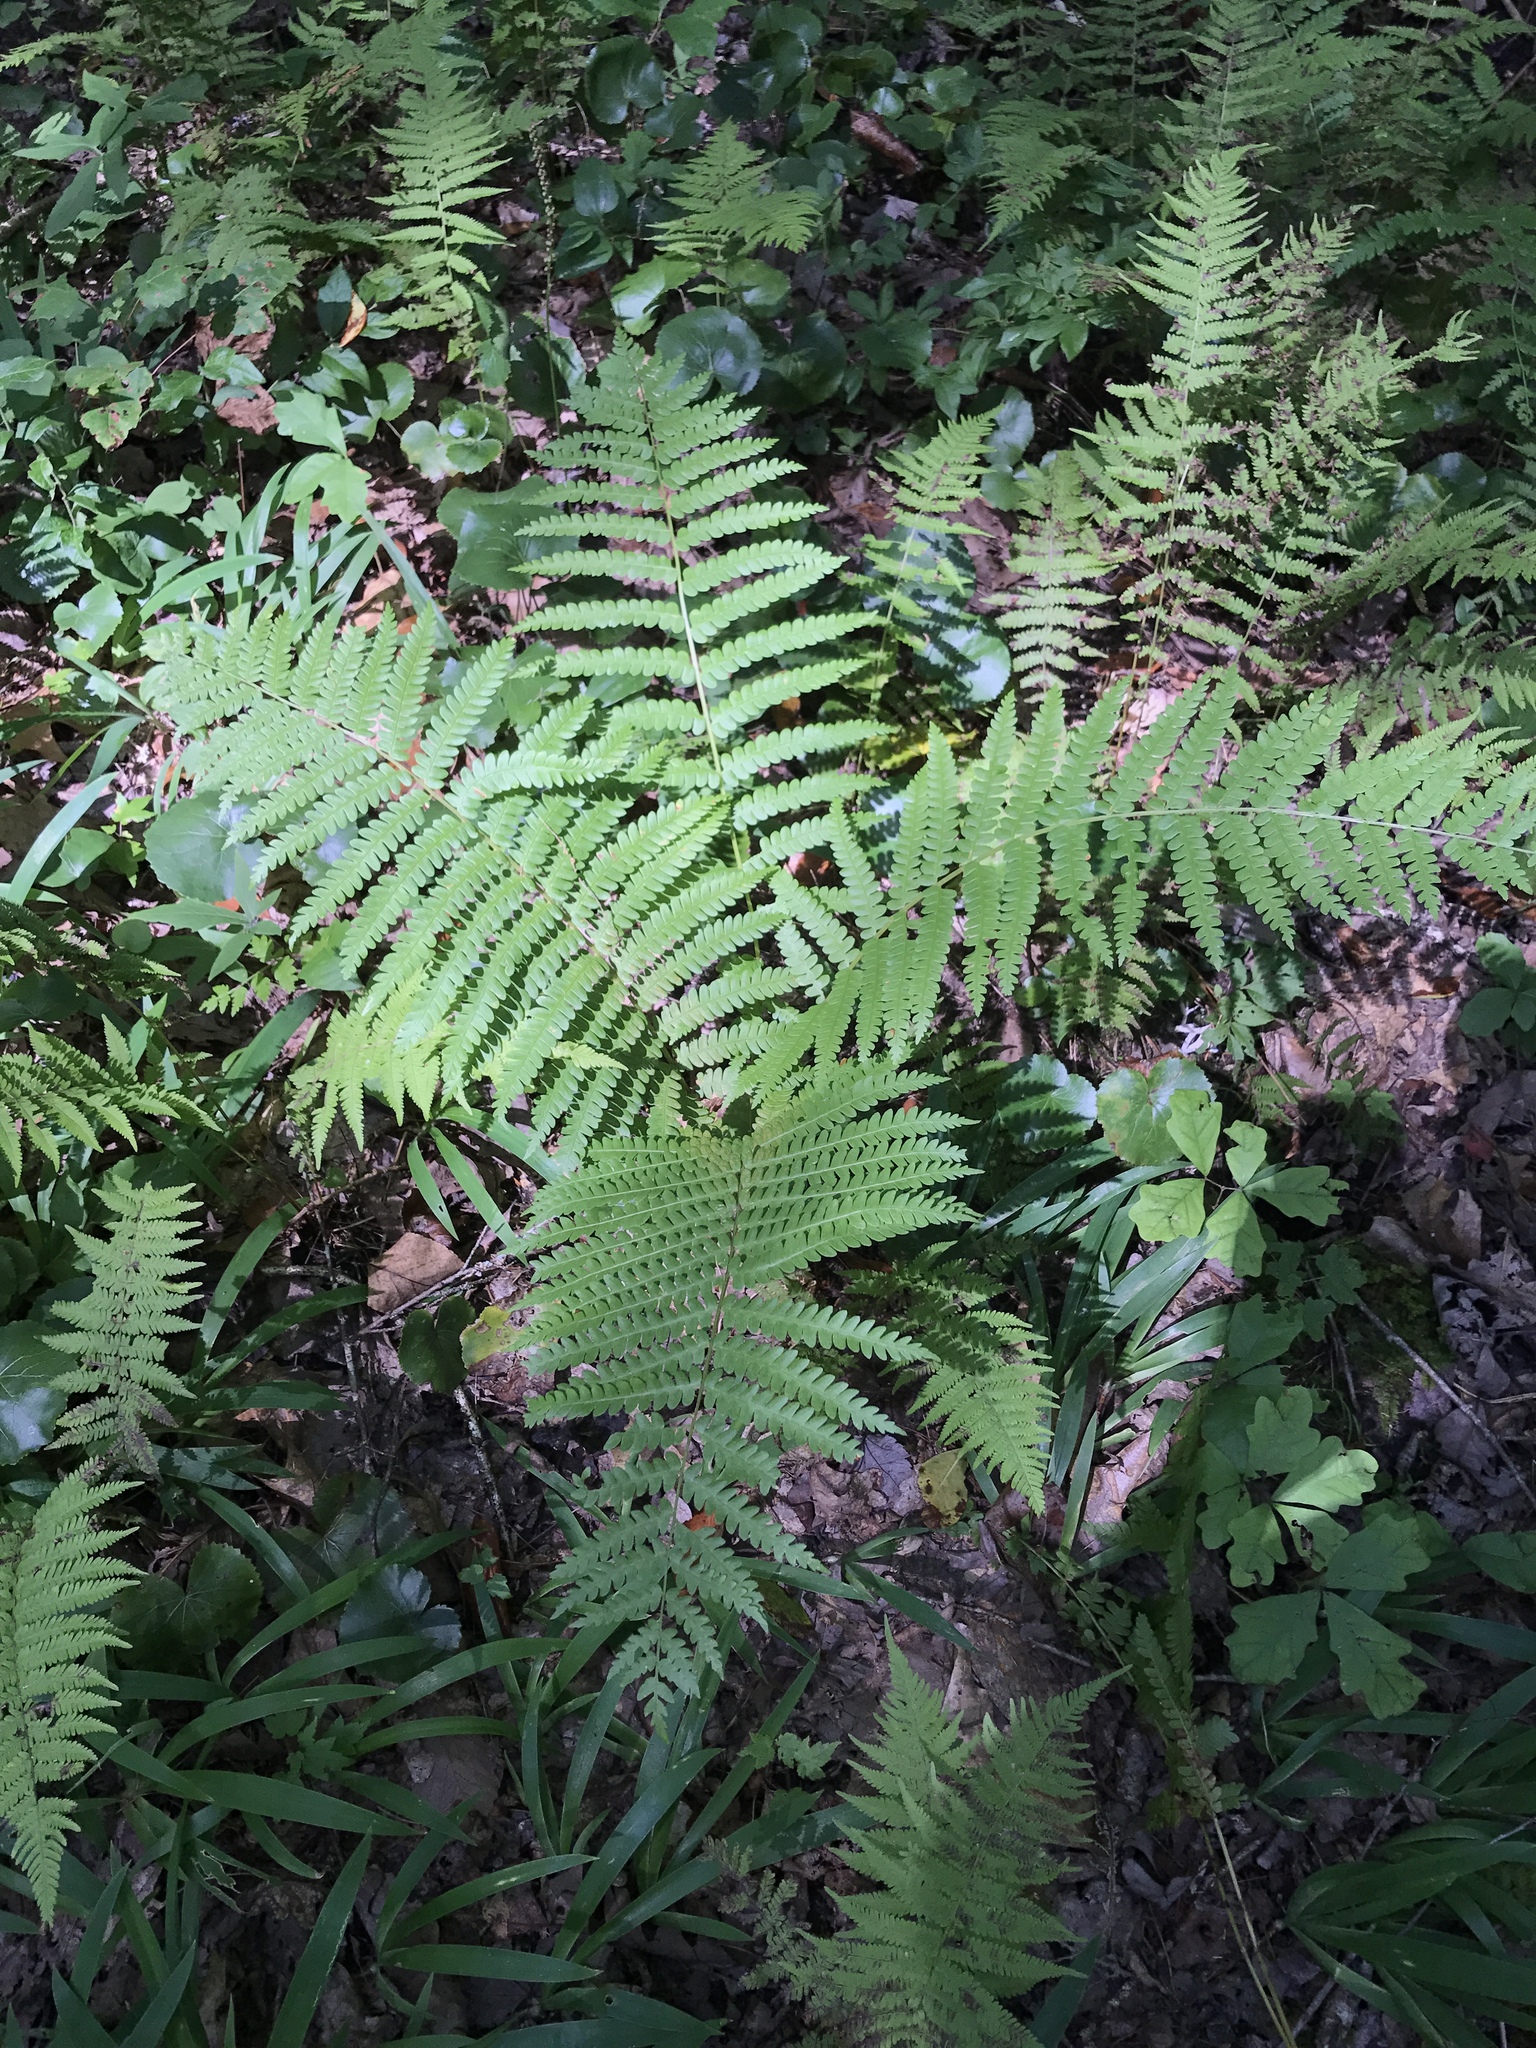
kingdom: Plantae
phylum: Tracheophyta
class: Polypodiopsida
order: Osmundales
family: Osmundaceae
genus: Osmundastrum
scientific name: Osmundastrum cinnamomeum
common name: Cinnamon fern
